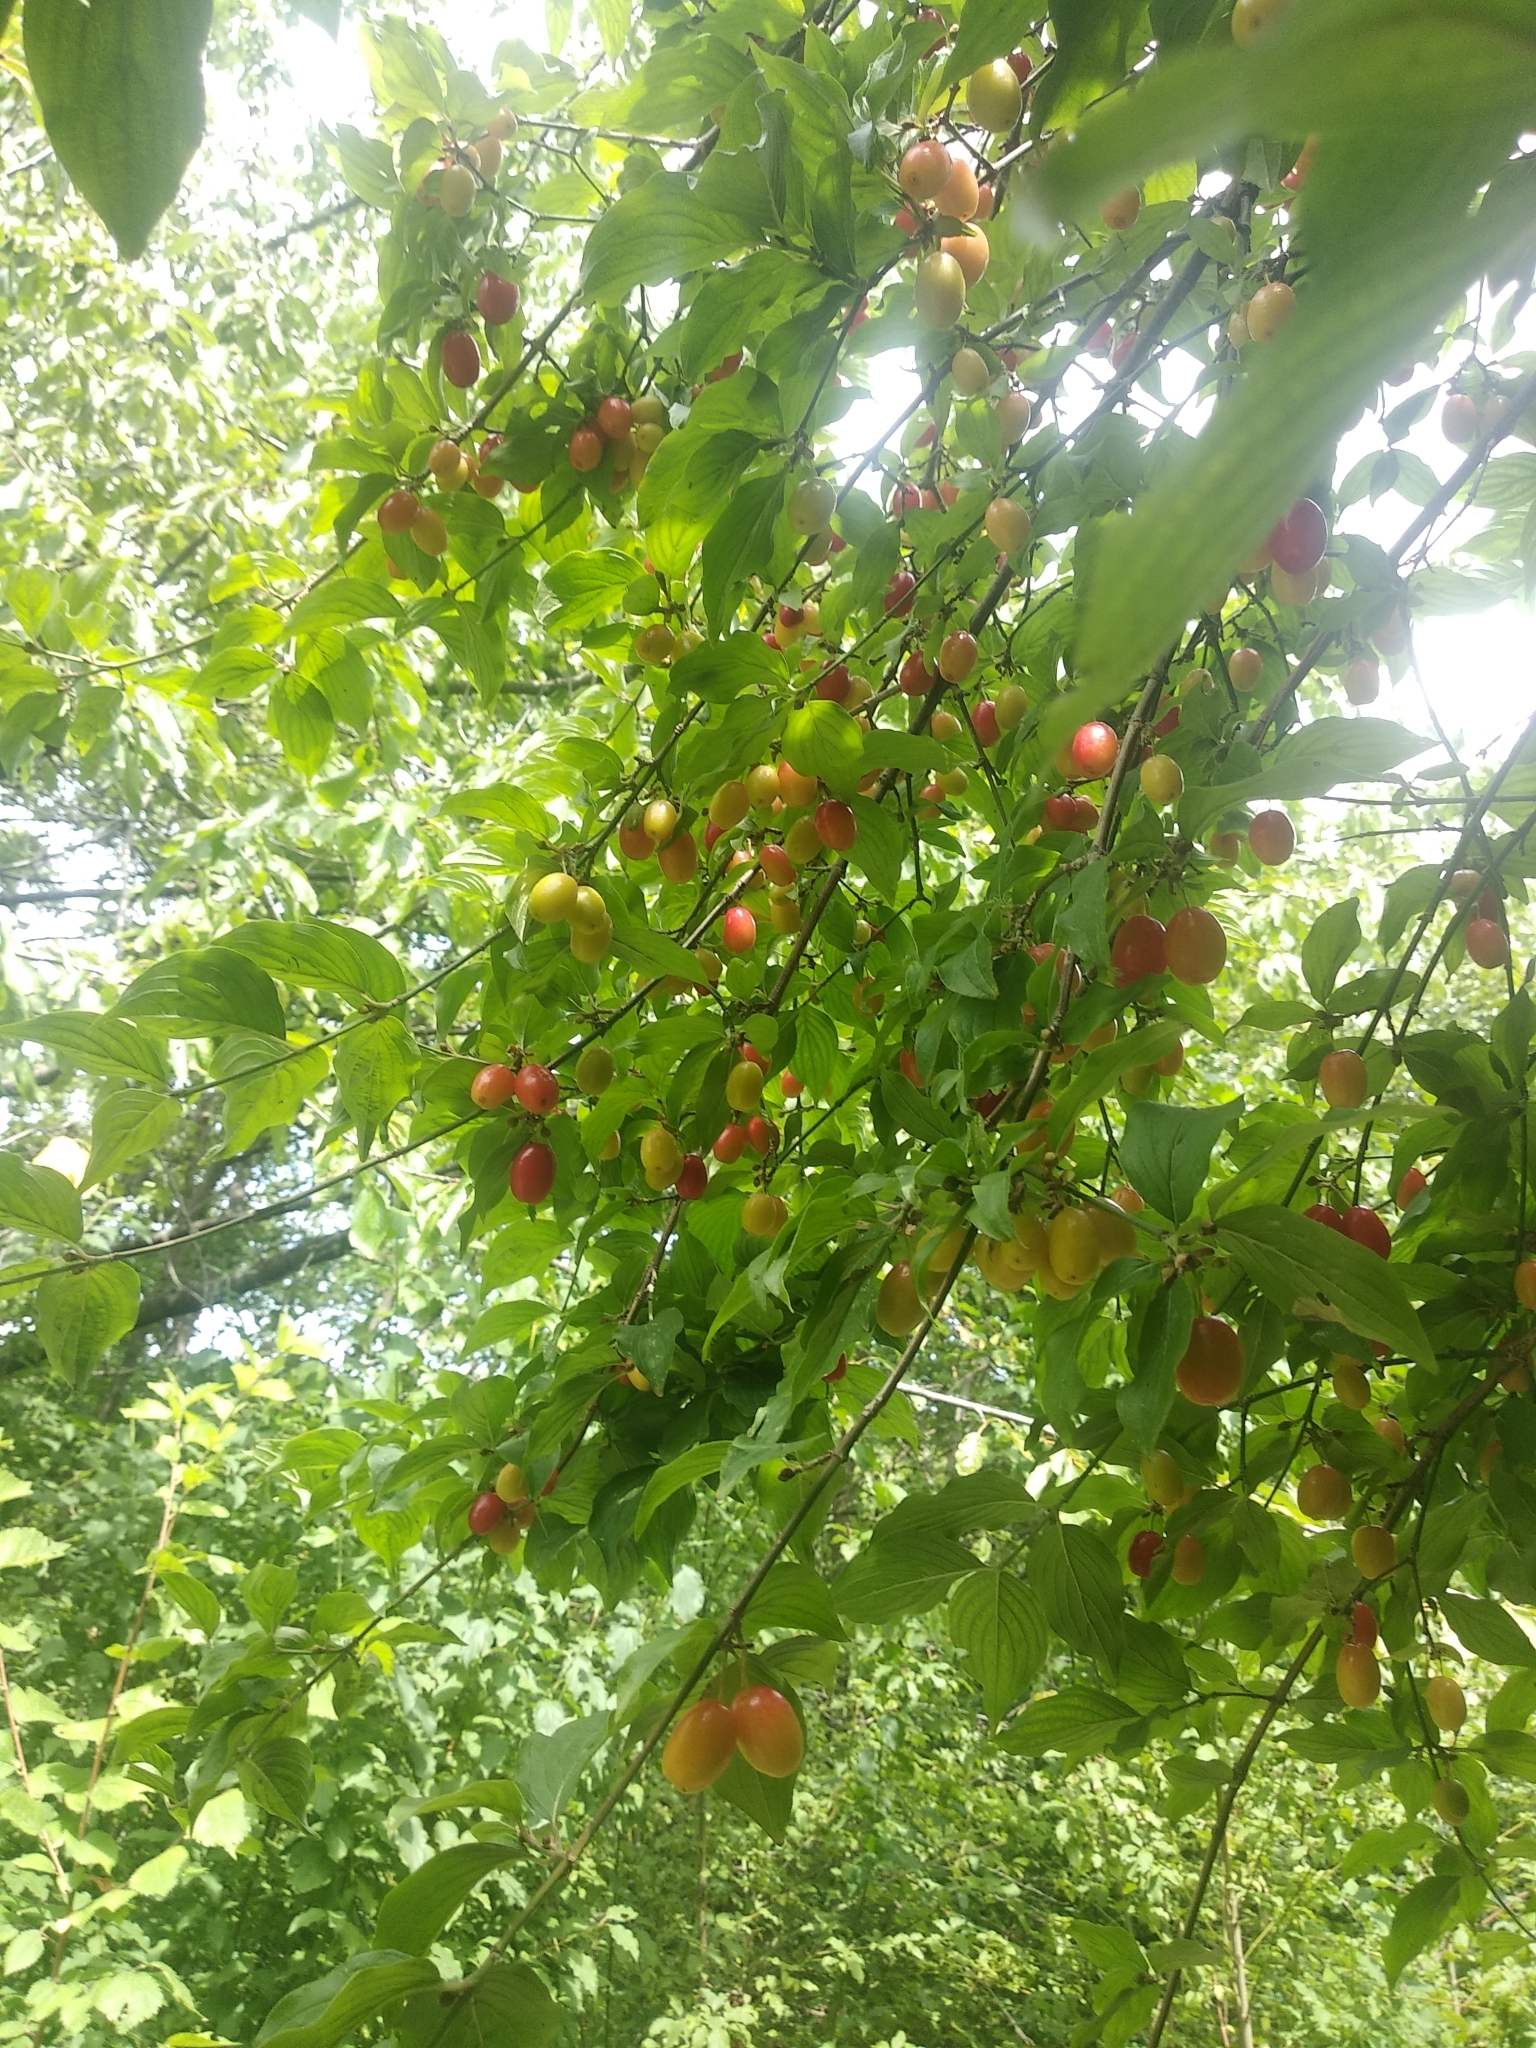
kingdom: Plantae
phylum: Tracheophyta
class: Magnoliopsida
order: Cornales
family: Cornaceae
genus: Cornus
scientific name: Cornus mas
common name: Cornelian-cherry
